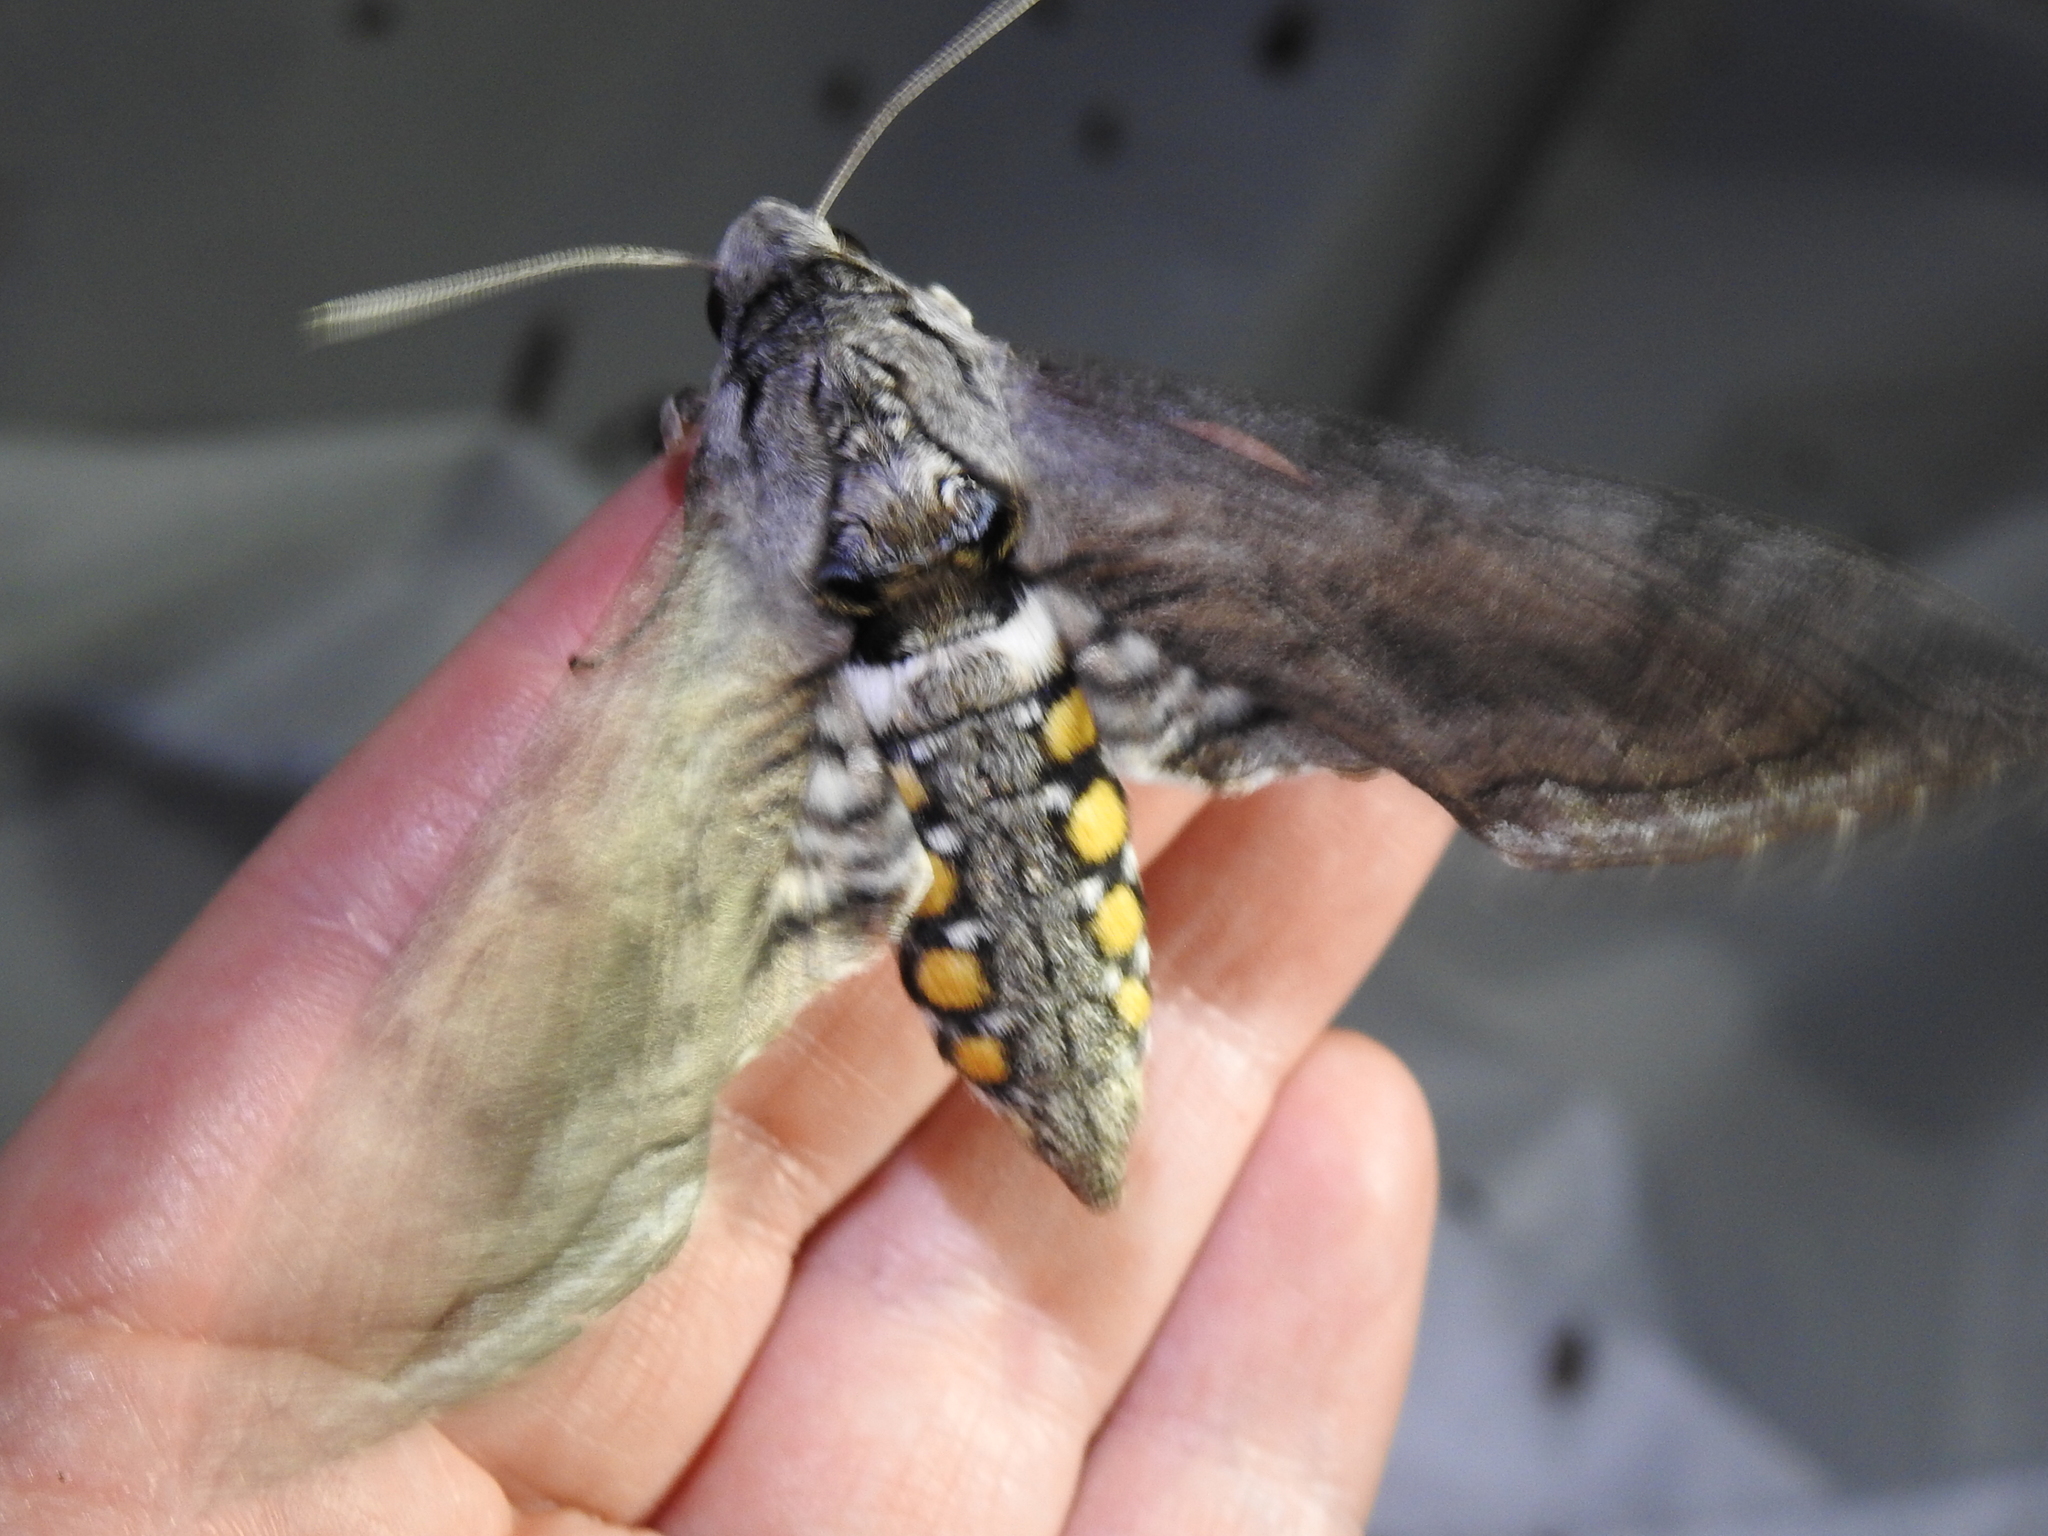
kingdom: Animalia
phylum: Arthropoda
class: Insecta
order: Lepidoptera
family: Sphingidae
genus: Manduca
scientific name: Manduca quinquemaculatus
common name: Five-spotted hawk-moth
